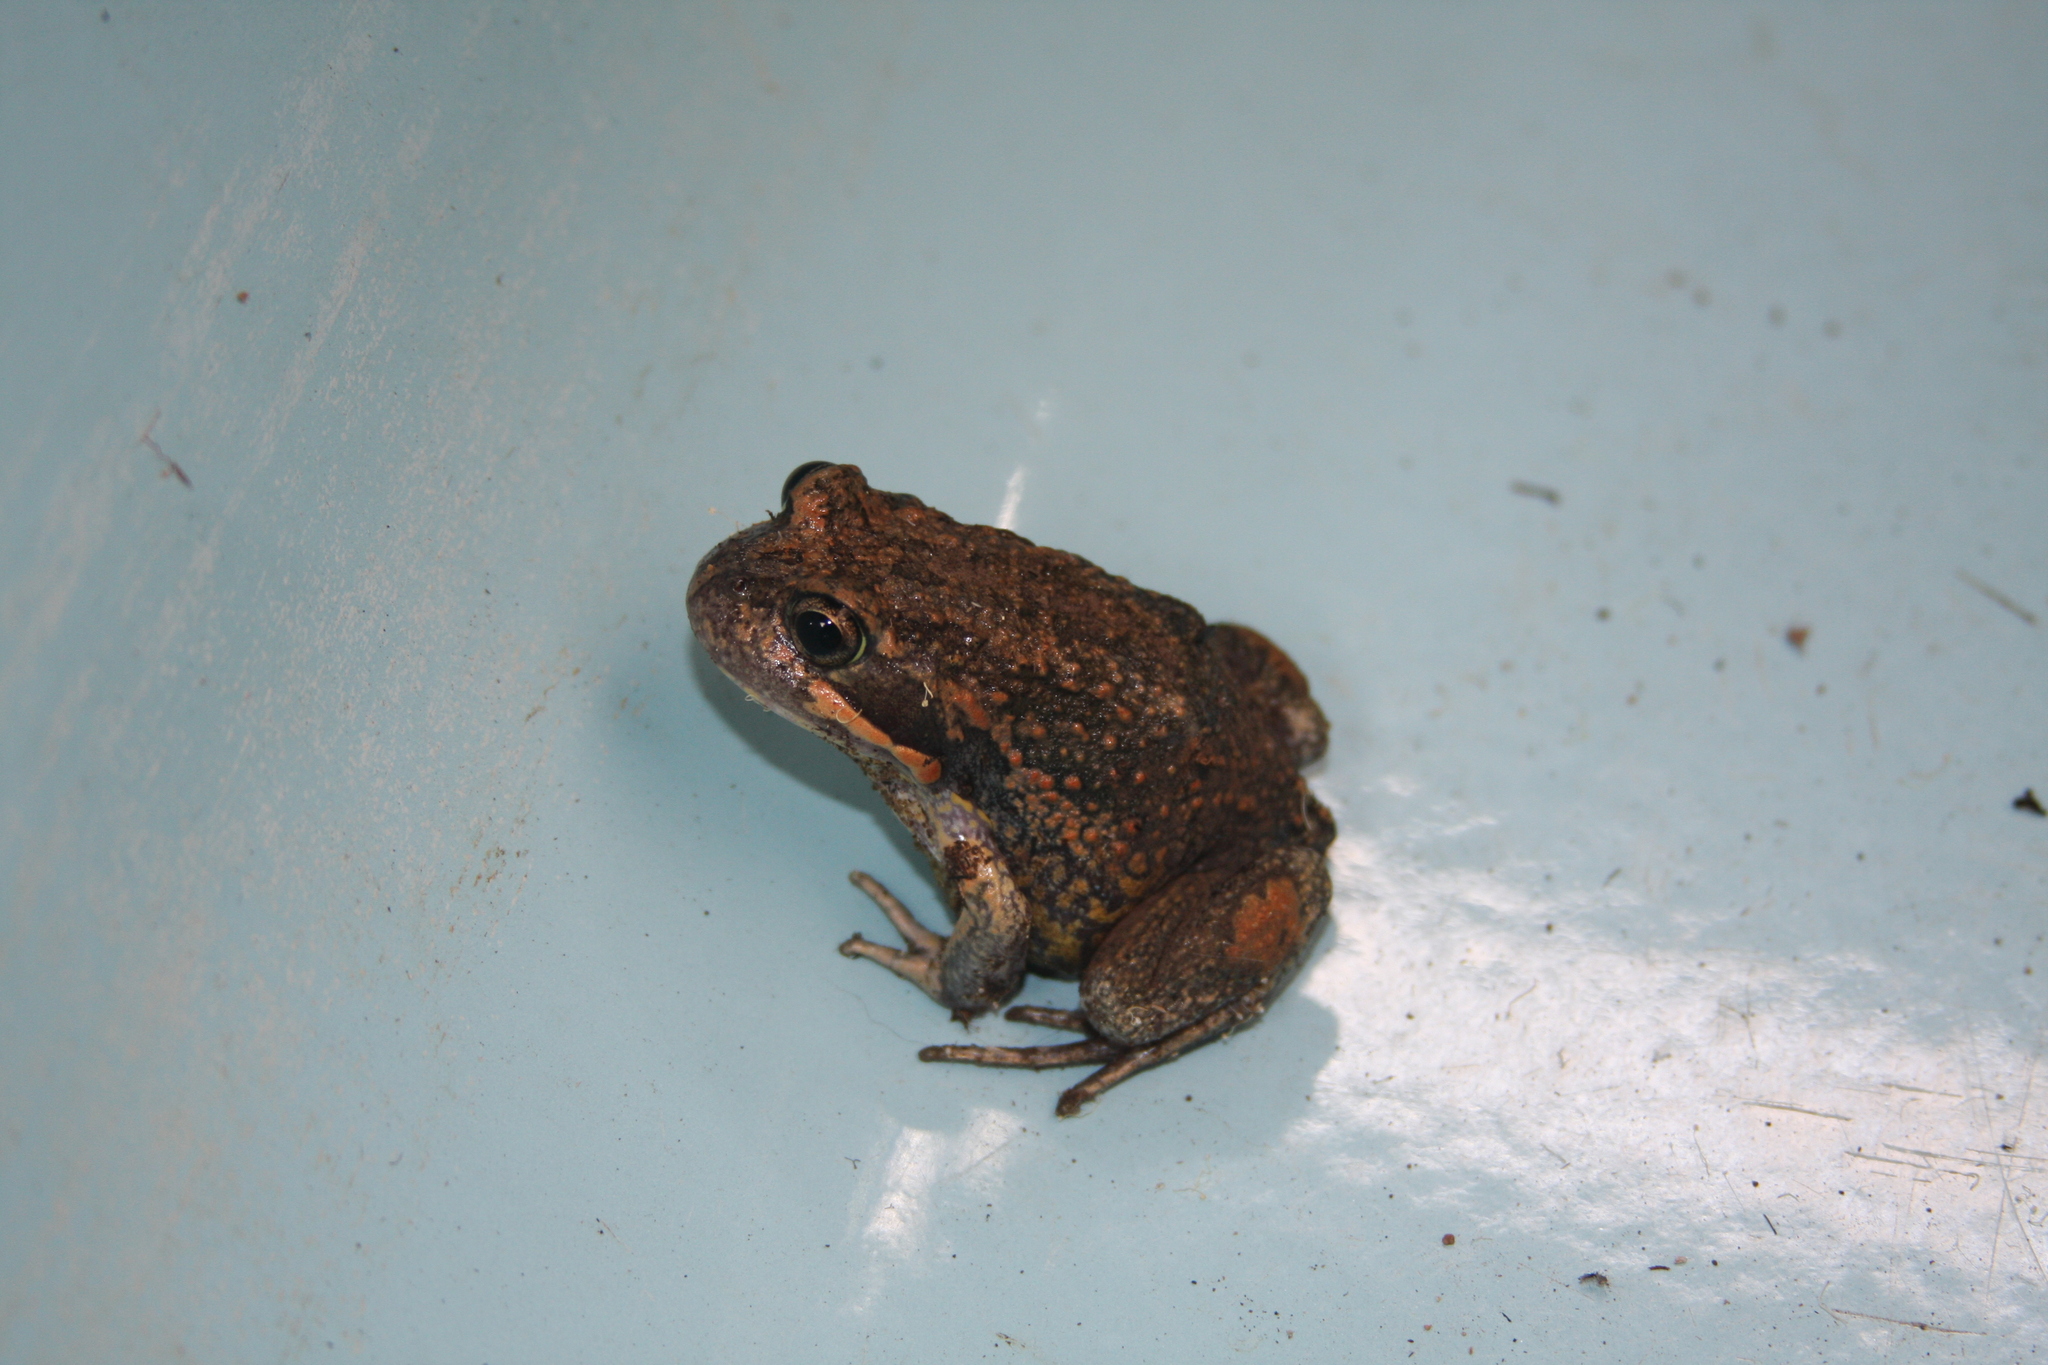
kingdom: Animalia
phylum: Chordata
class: Amphibia
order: Anura
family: Limnodynastidae
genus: Limnodynastes
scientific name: Limnodynastes dumerilii
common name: Banjo frog
